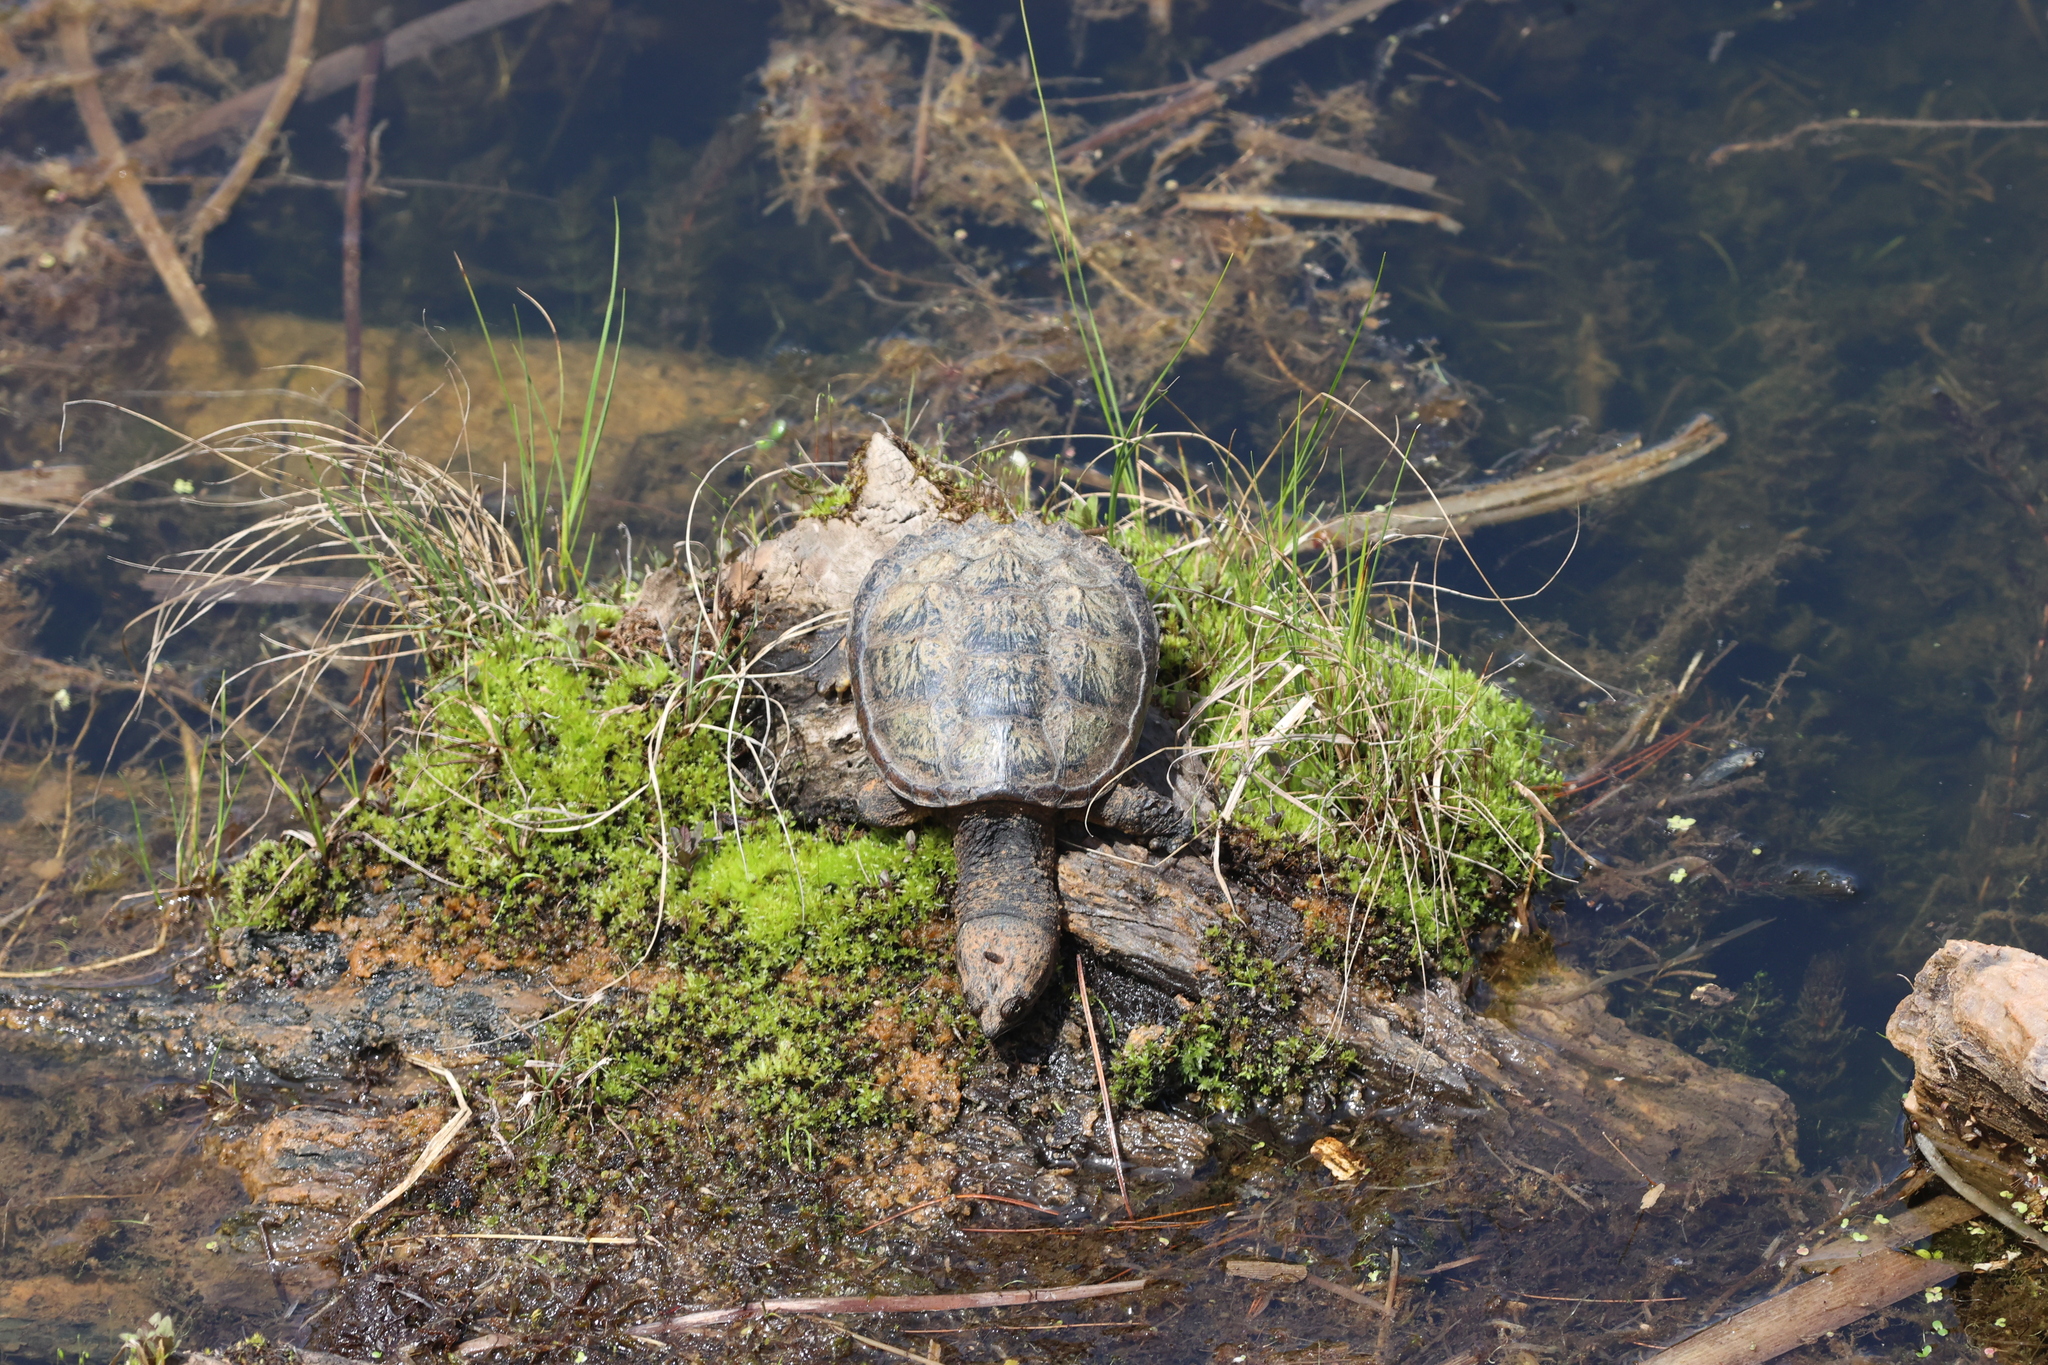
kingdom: Animalia
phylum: Chordata
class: Testudines
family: Chelydridae
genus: Chelydra
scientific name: Chelydra serpentina
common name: Common snapping turtle
